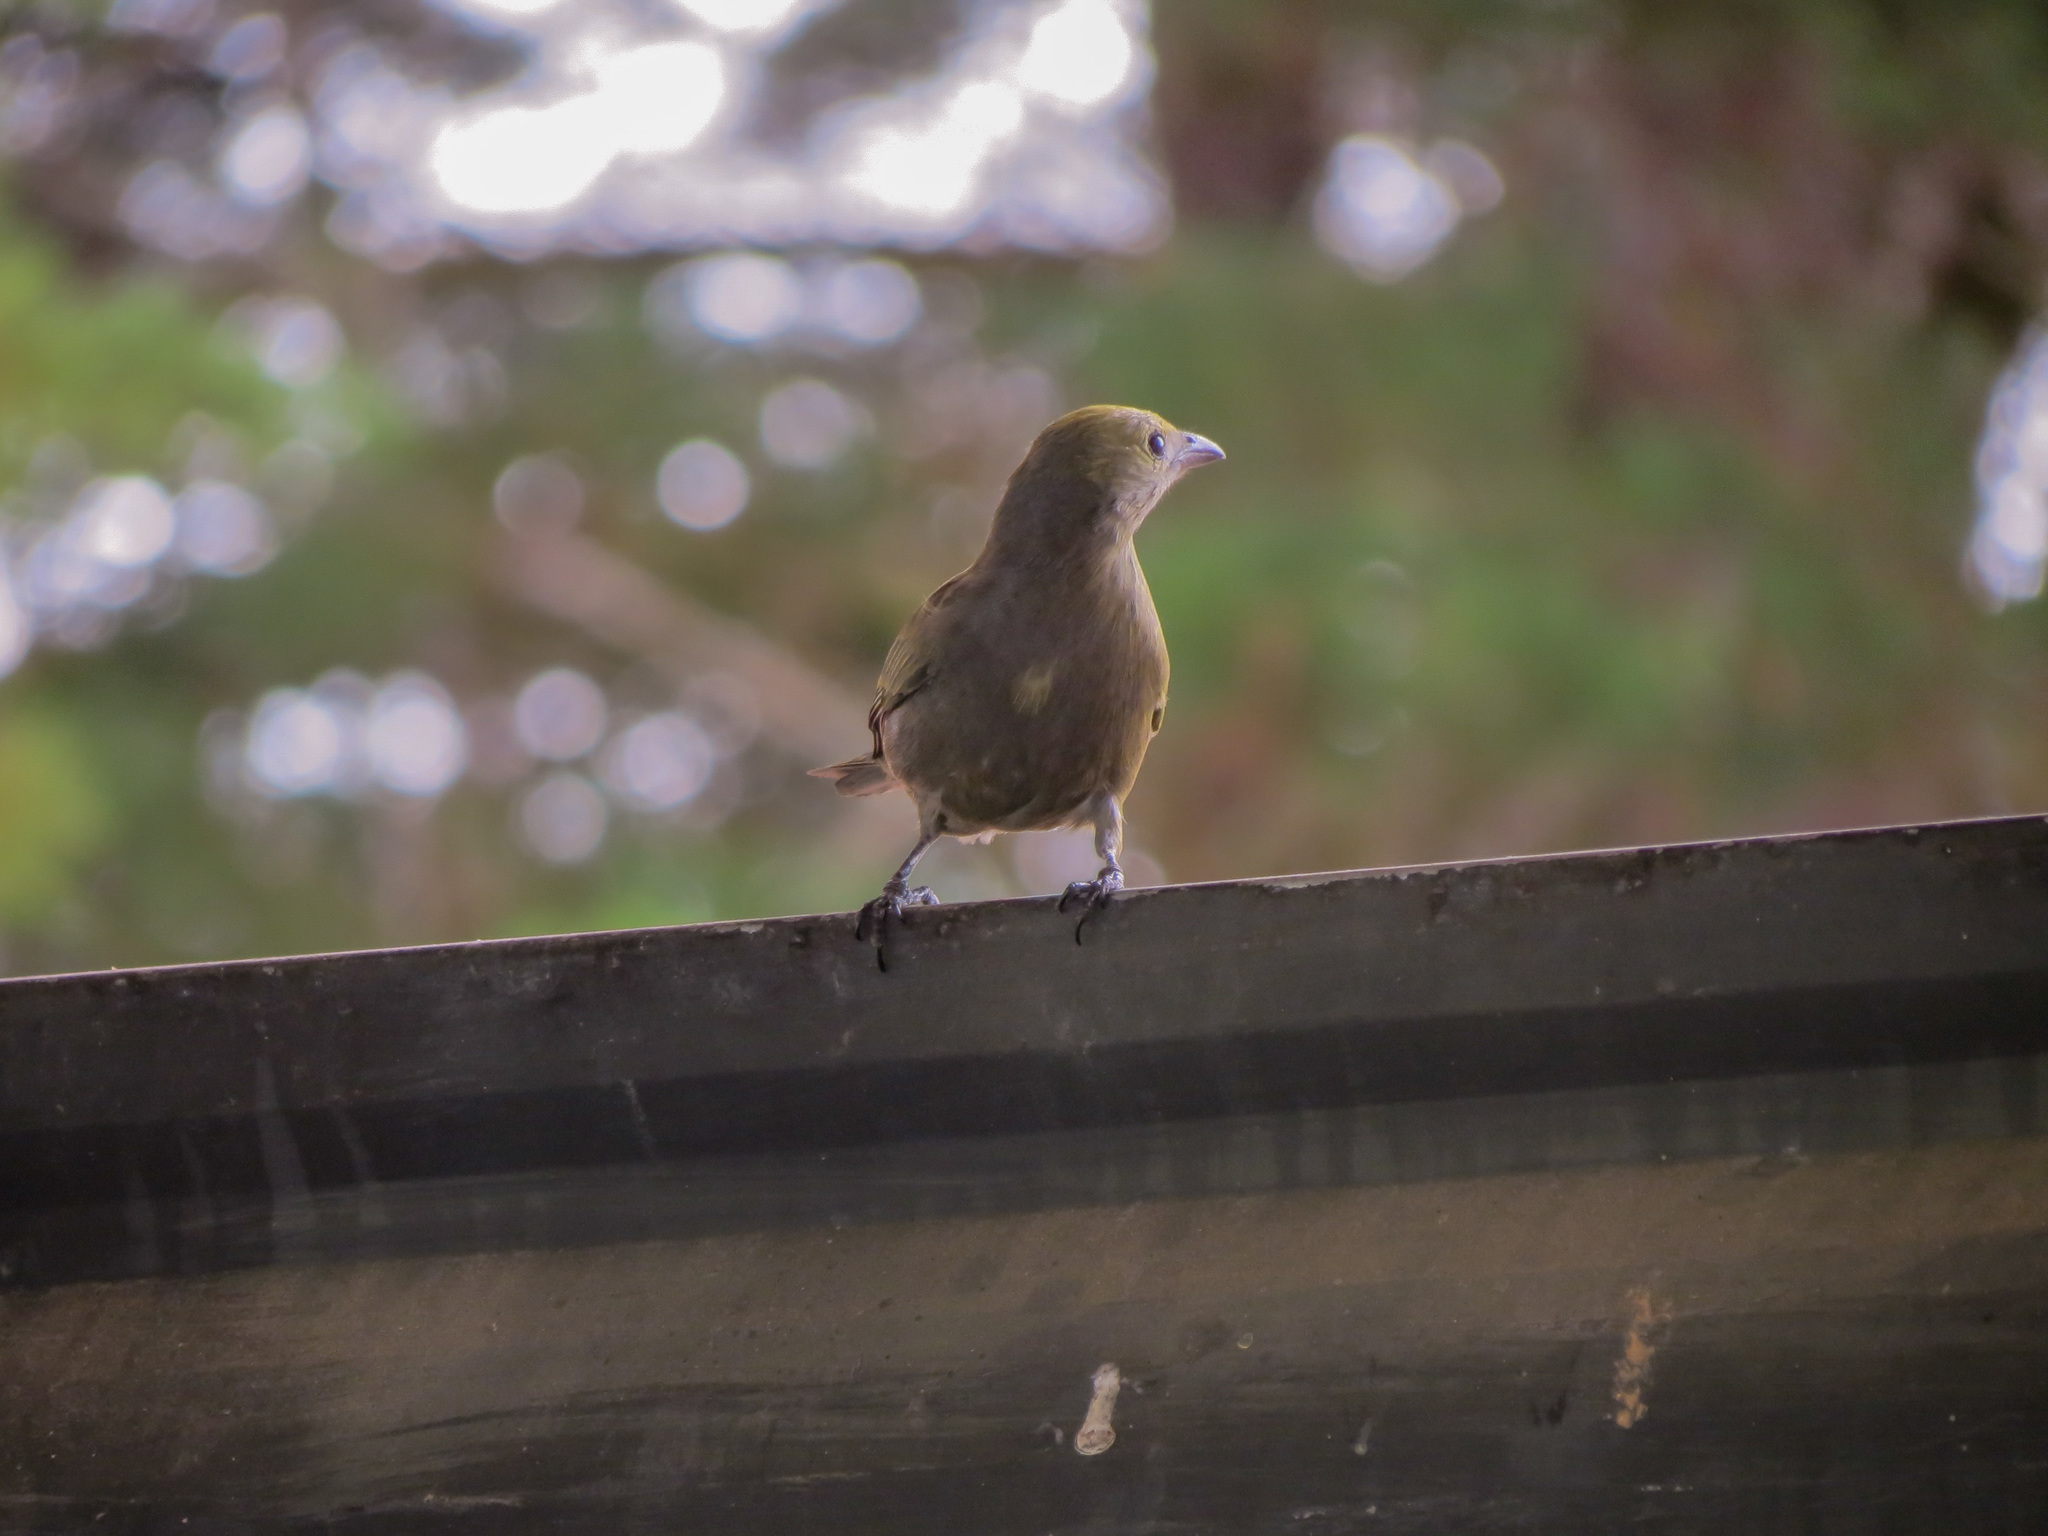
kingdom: Animalia
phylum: Chordata
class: Aves
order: Passeriformes
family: Thraupidae
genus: Thraupis
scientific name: Thraupis palmarum
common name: Palm tanager
